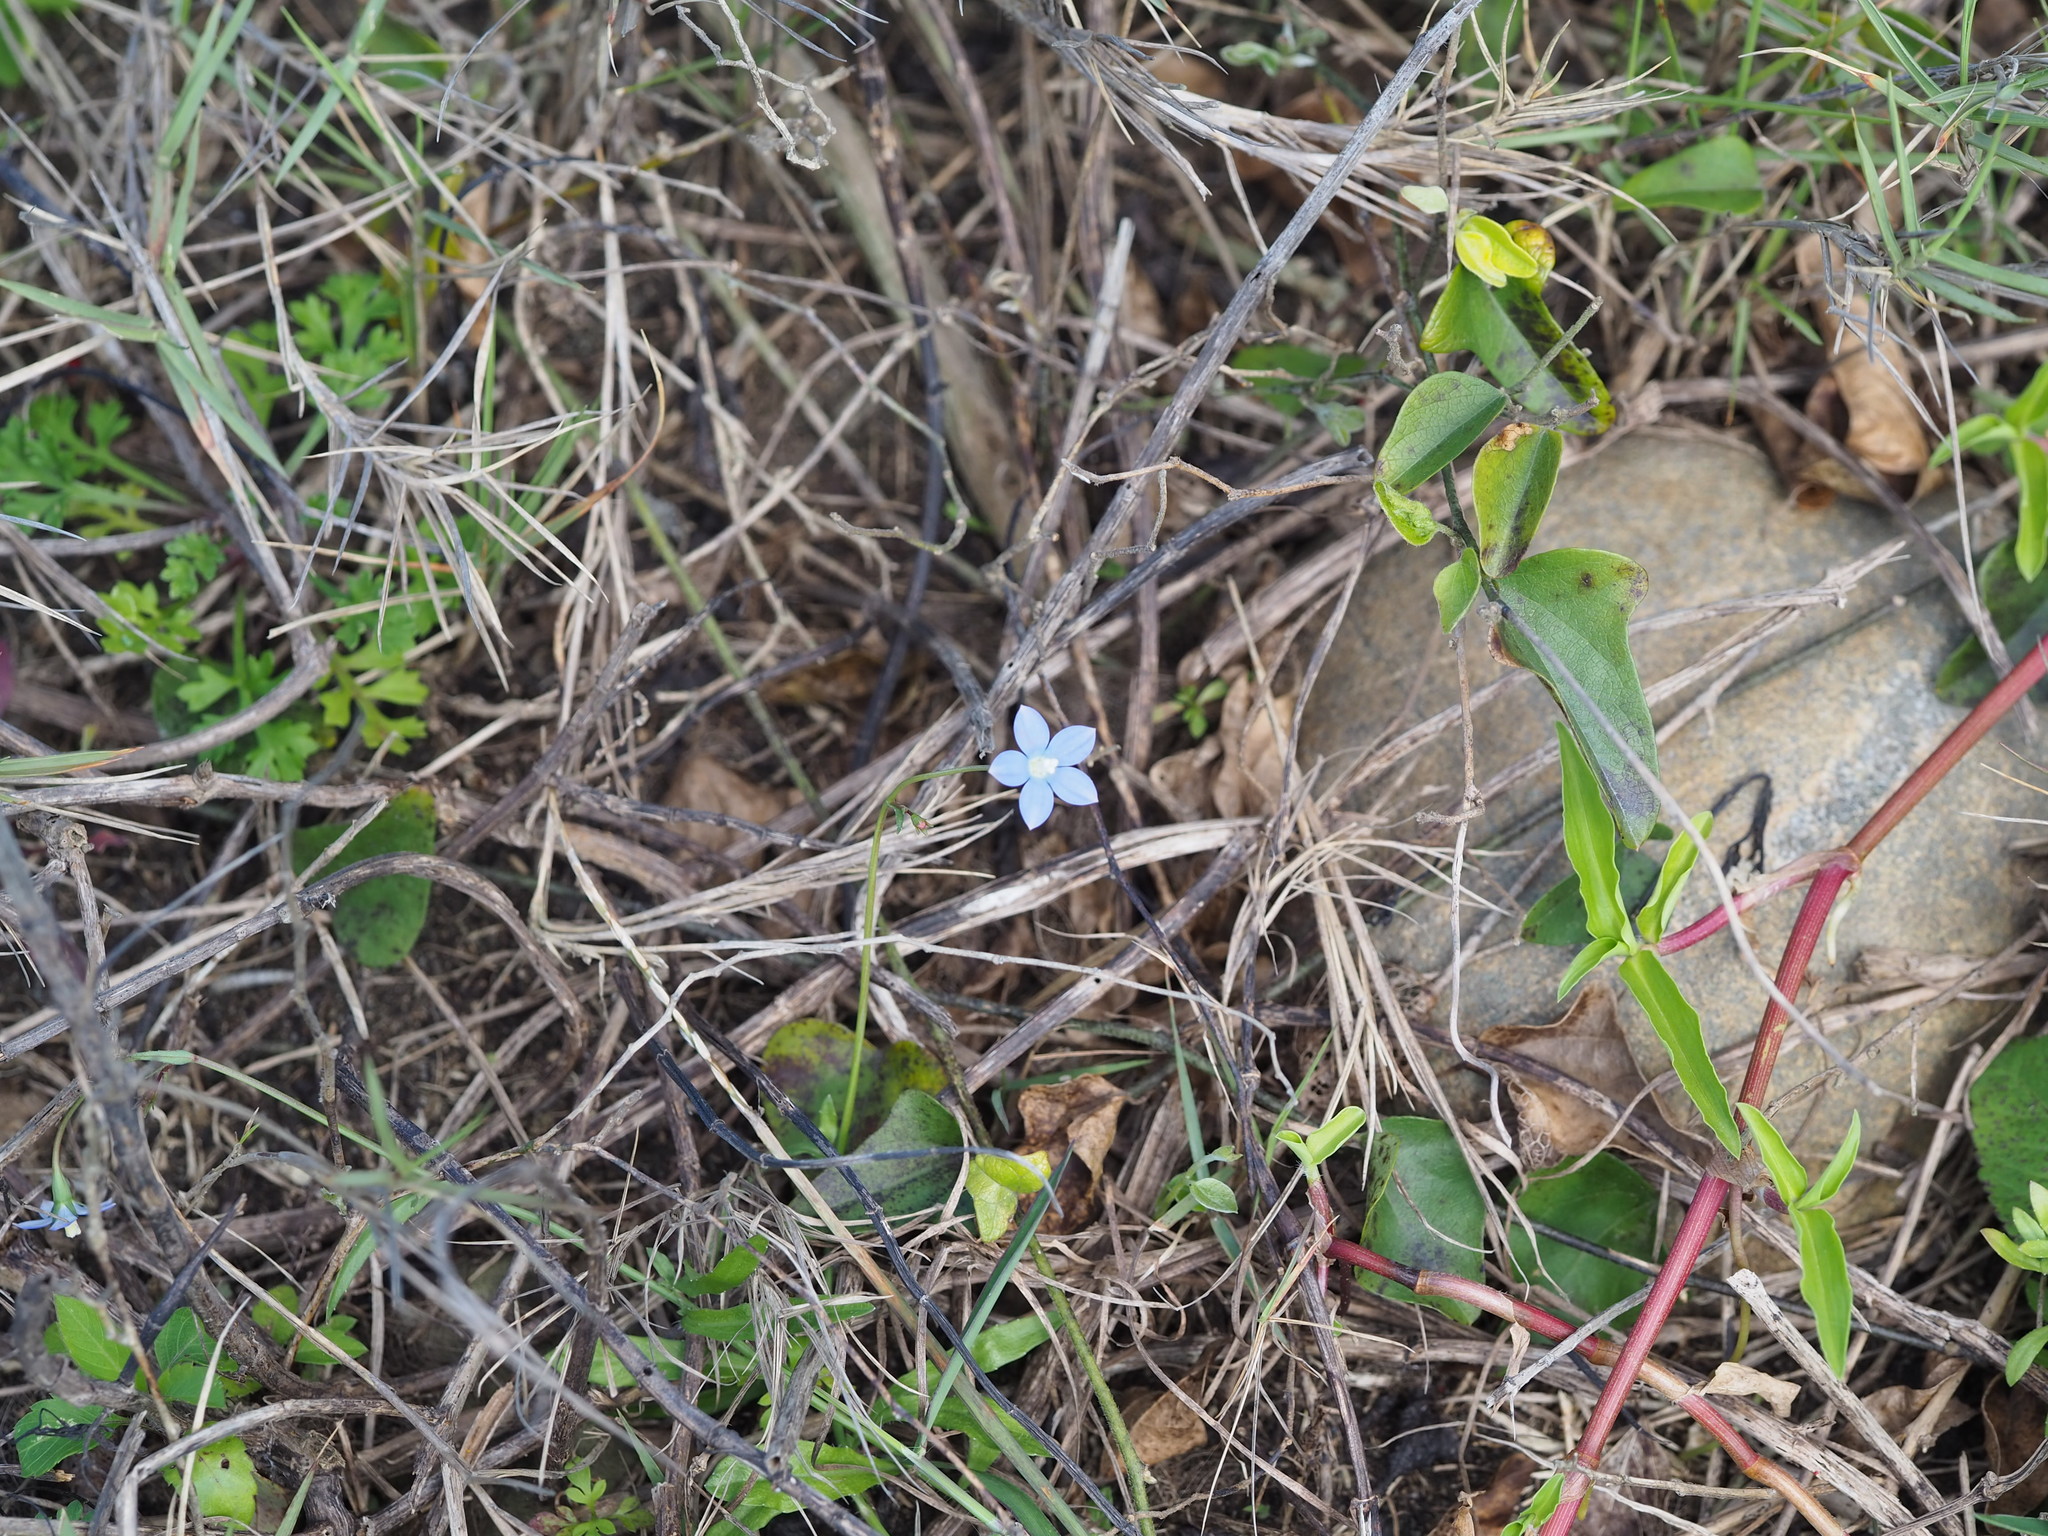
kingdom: Plantae
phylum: Tracheophyta
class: Magnoliopsida
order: Asterales
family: Campanulaceae
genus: Wahlenbergia
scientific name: Wahlenbergia marginata
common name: Southern rockbell
